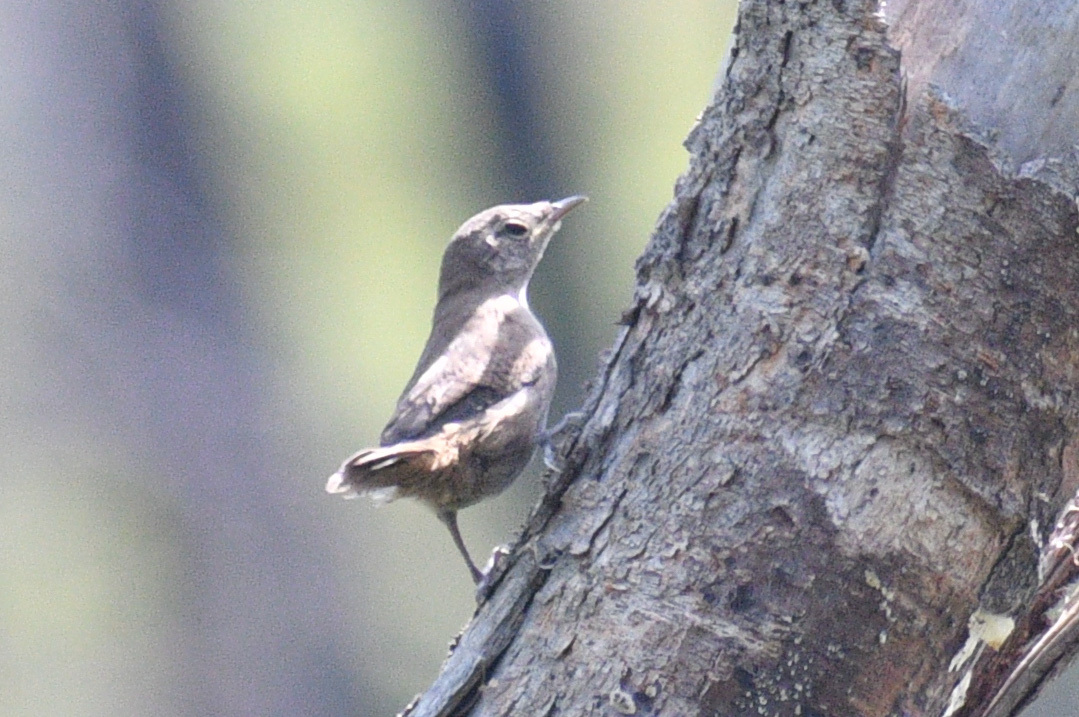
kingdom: Animalia
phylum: Chordata
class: Aves
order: Passeriformes
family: Troglodytidae
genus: Troglodytes
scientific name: Troglodytes aedon
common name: House wren
